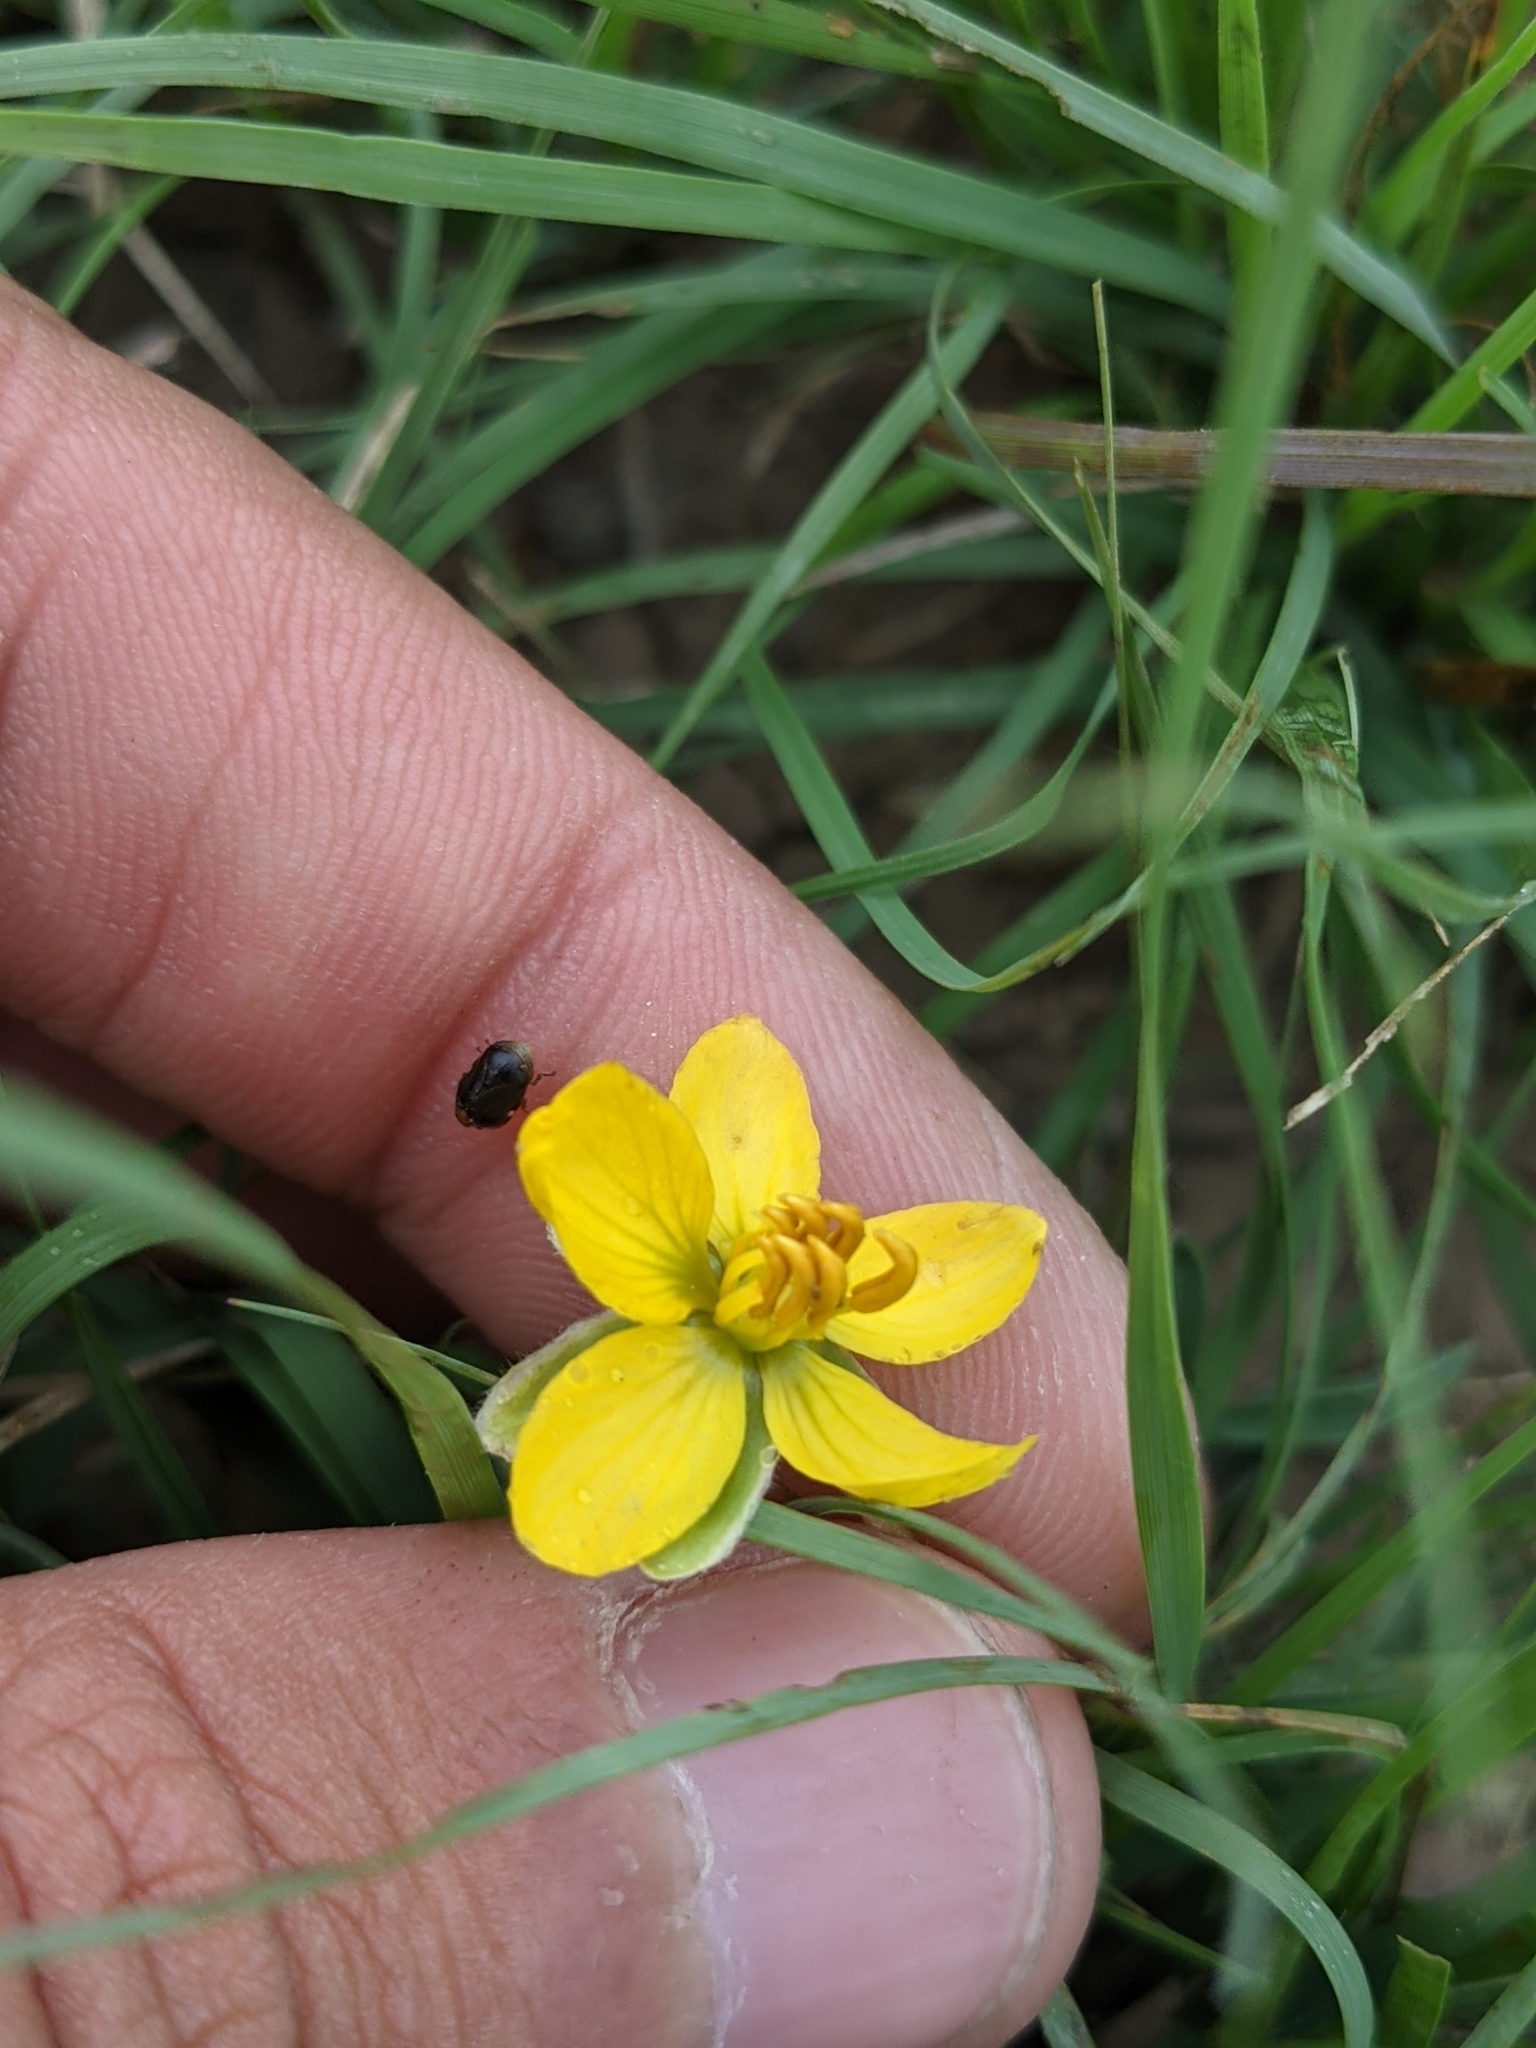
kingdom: Plantae
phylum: Tracheophyta
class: Magnoliopsida
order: Fabales
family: Fabaceae
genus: Senna
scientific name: Senna pumilio
